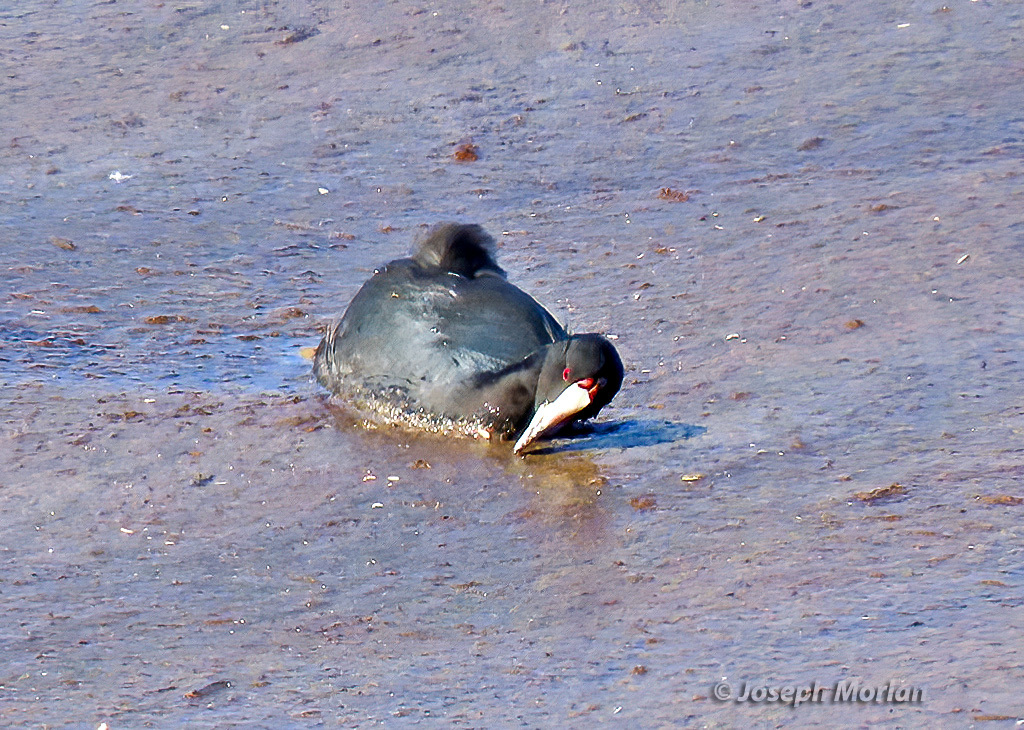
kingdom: Animalia
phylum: Chordata
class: Aves
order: Gruiformes
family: Rallidae
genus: Fulica
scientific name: Fulica cristata
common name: Red-knobbed coot
